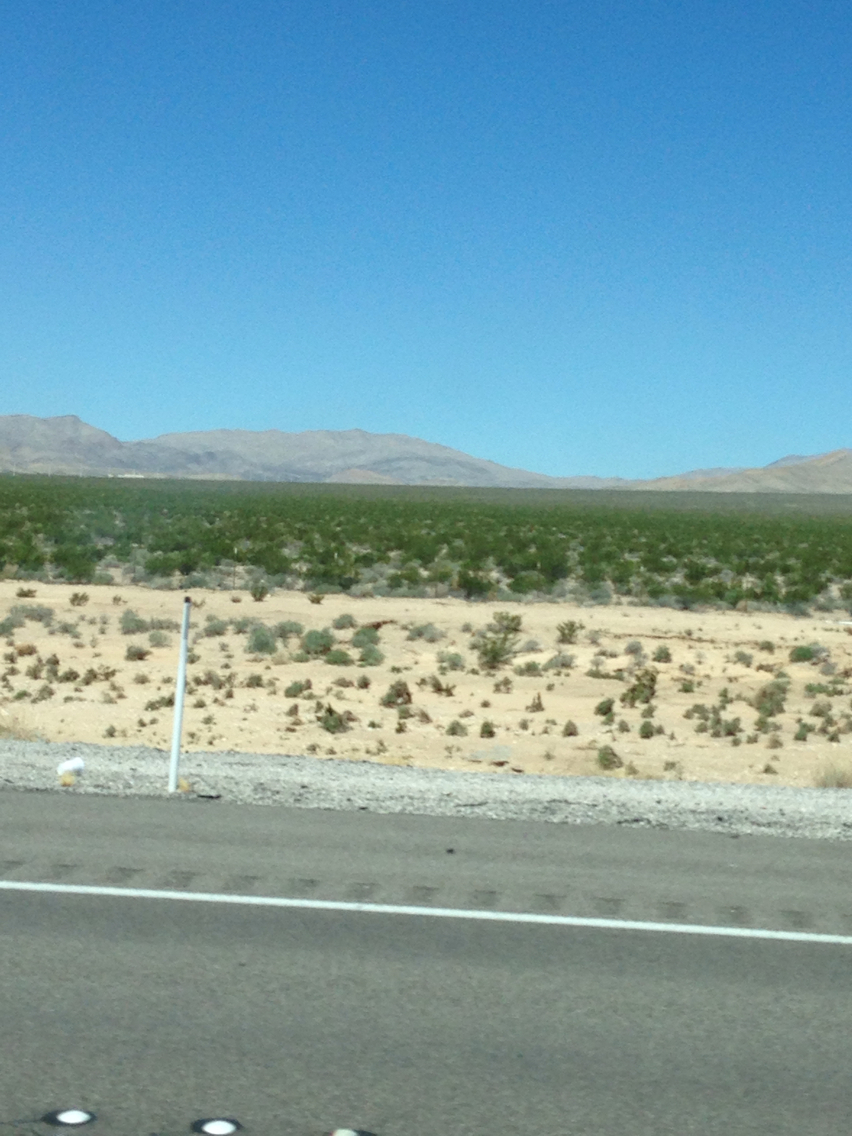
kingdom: Plantae
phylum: Tracheophyta
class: Magnoliopsida
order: Zygophyllales
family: Zygophyllaceae
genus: Larrea
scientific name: Larrea tridentata
